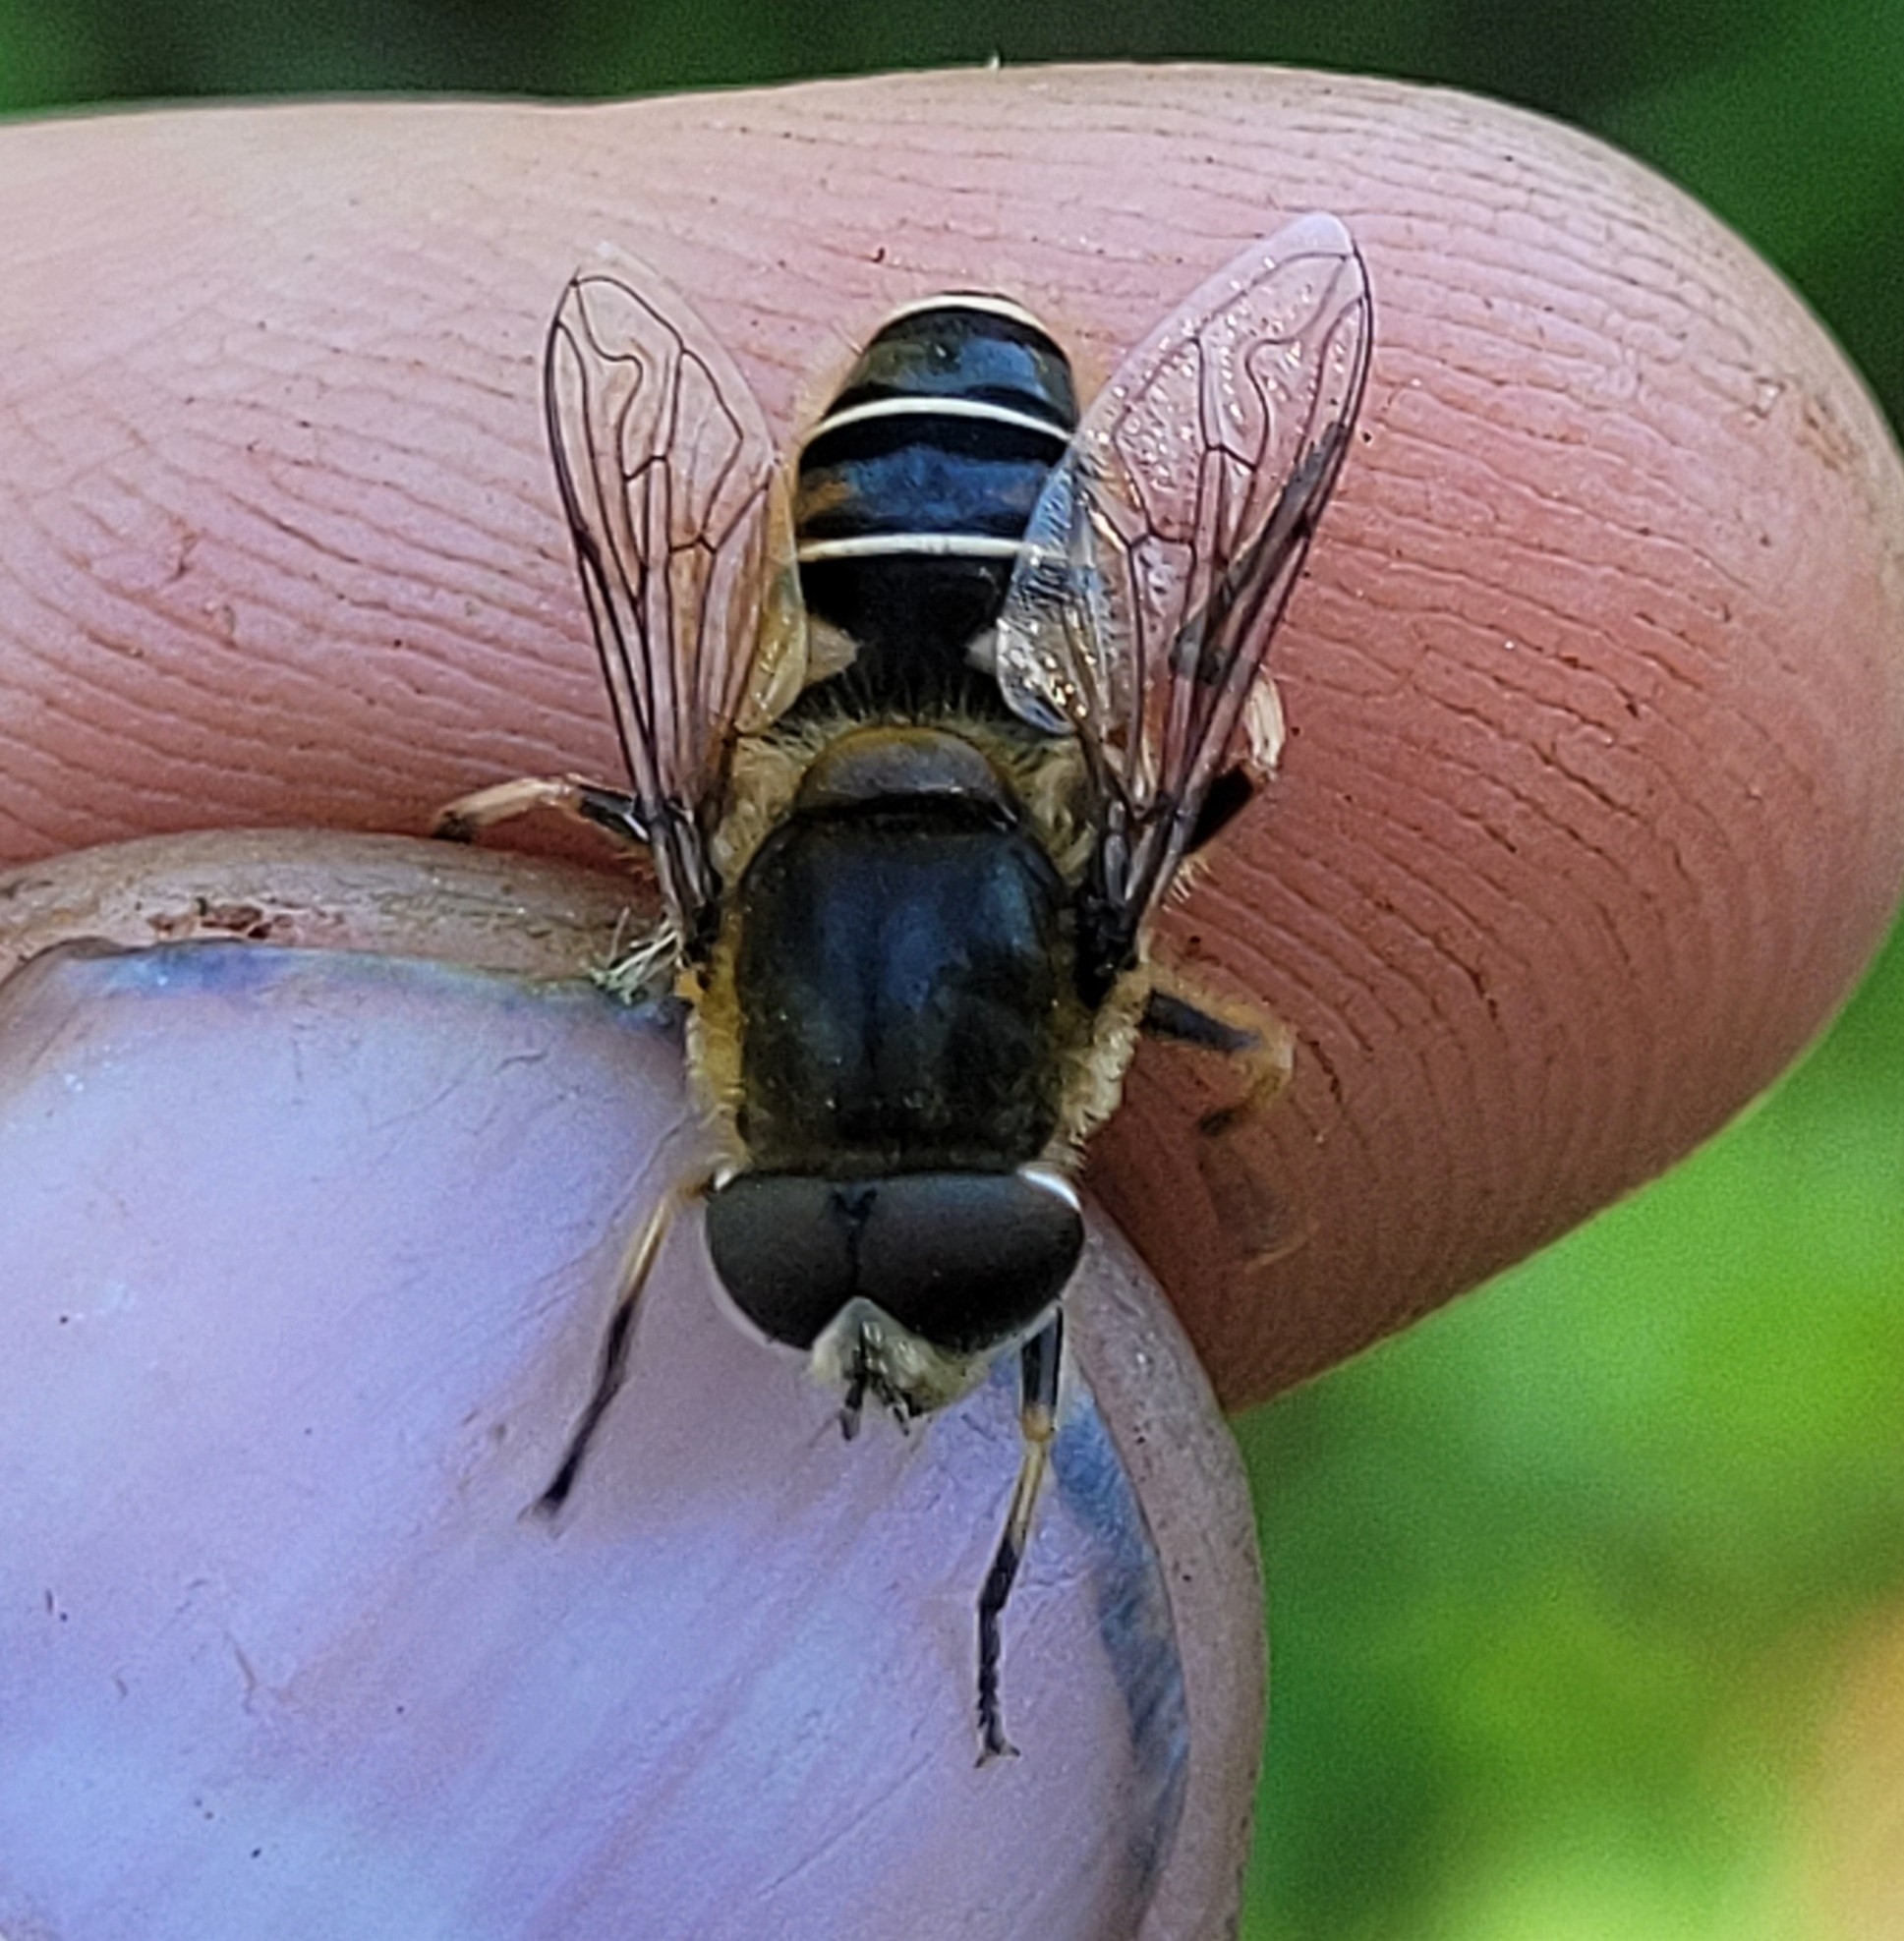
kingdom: Animalia
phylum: Arthropoda
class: Insecta
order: Diptera
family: Syrphidae
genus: Eristalis
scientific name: Eristalis dimidiata
